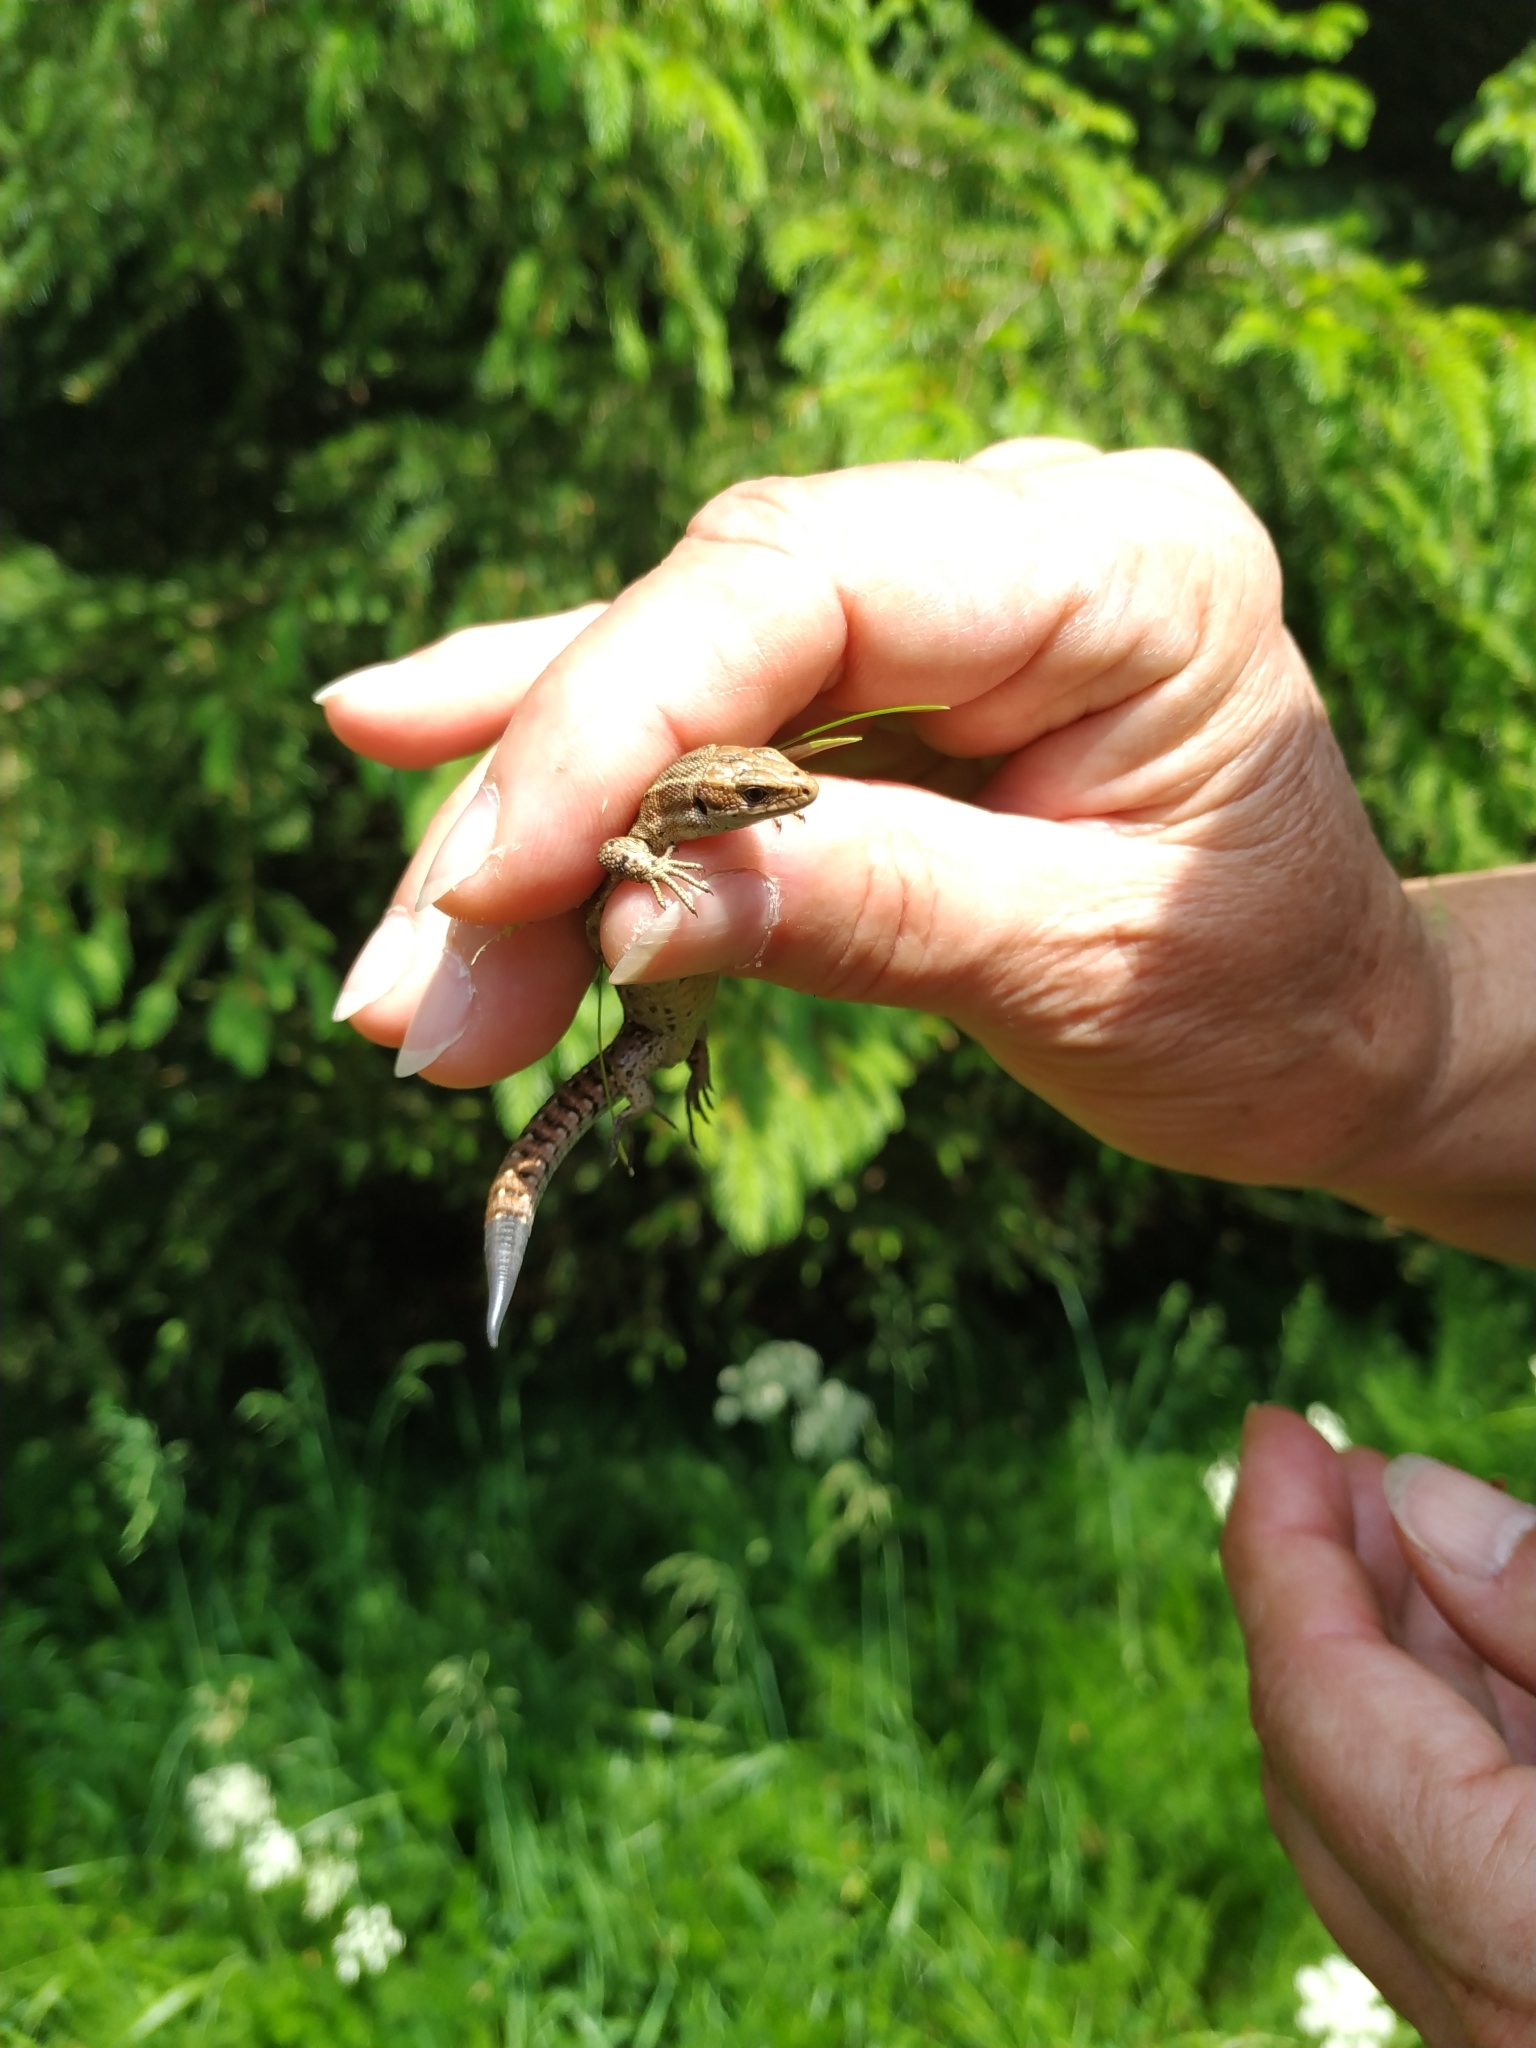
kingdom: Animalia
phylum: Chordata
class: Squamata
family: Lacertidae
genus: Zootoca
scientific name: Zootoca vivipara
